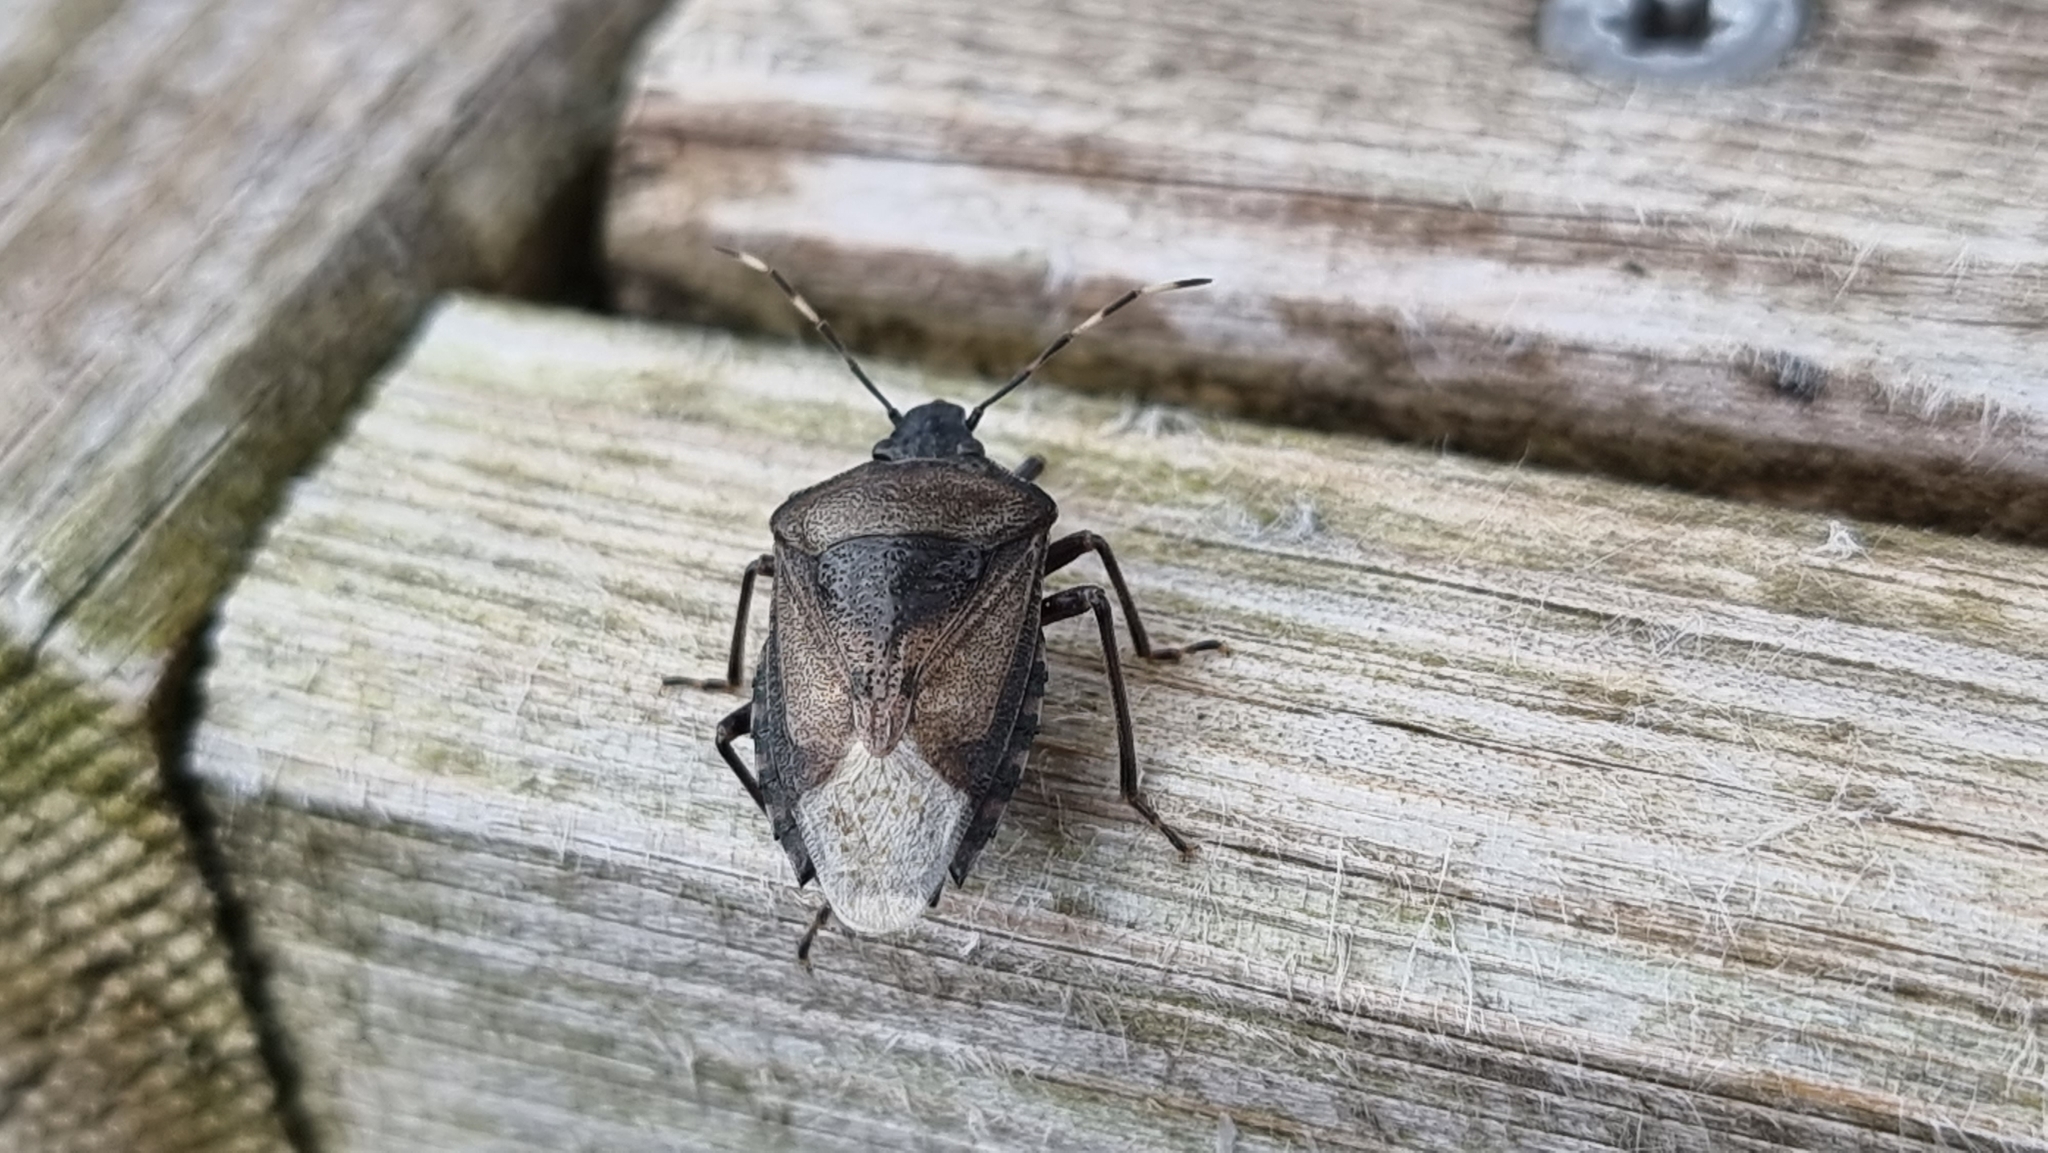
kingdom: Animalia
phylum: Arthropoda
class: Insecta
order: Hemiptera
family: Pentatomidae
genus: Rhaphigaster
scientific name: Rhaphigaster nebulosa
